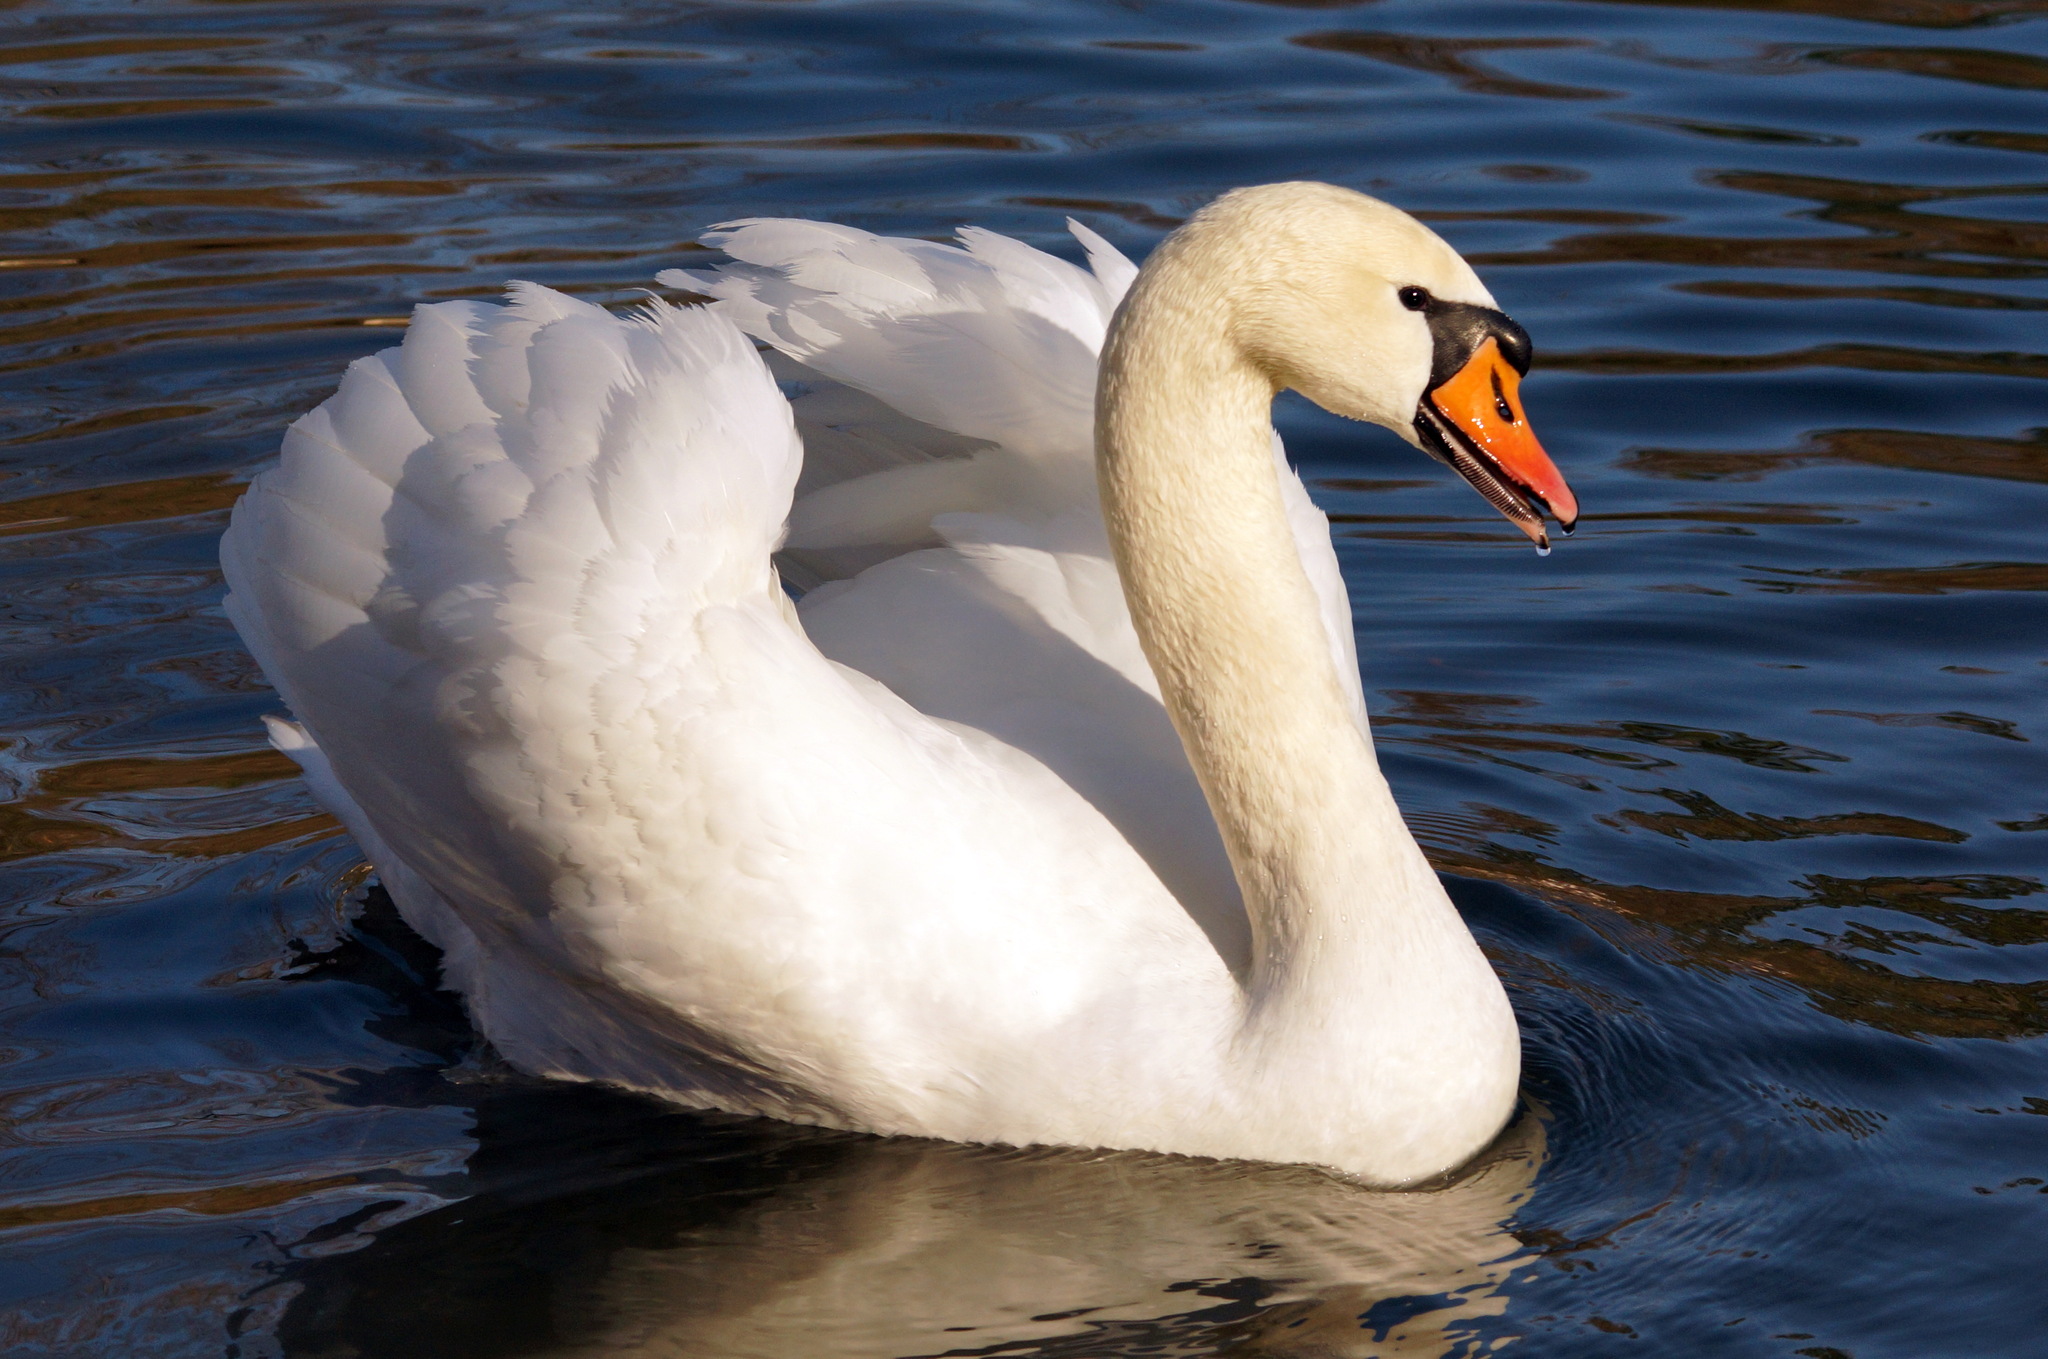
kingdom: Animalia
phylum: Chordata
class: Aves
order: Anseriformes
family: Anatidae
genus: Cygnus
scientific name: Cygnus olor
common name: Mute swan
